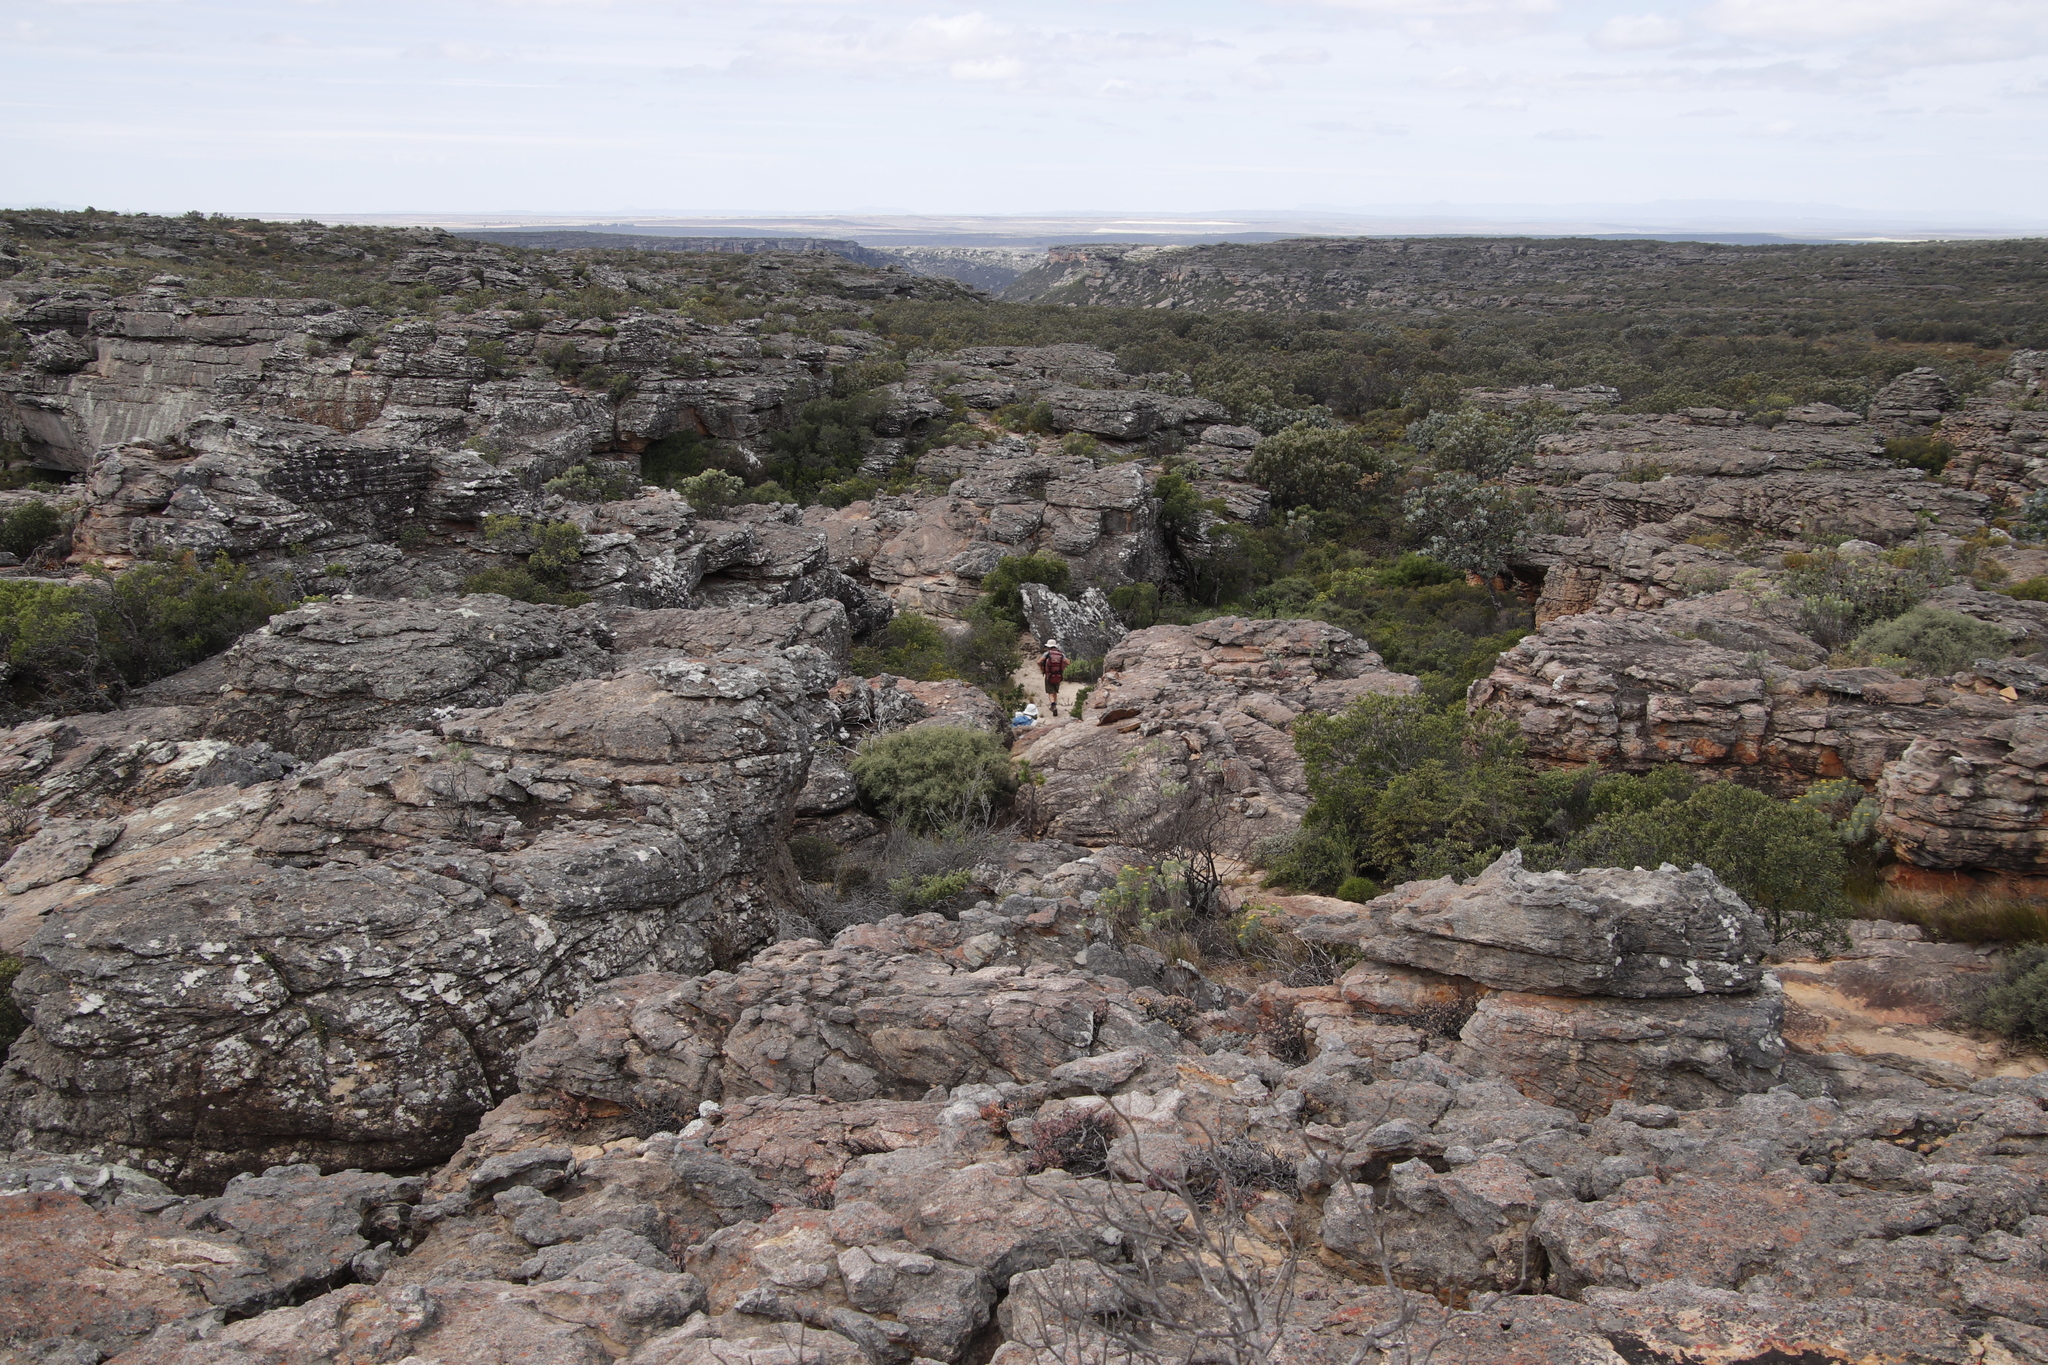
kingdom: Plantae
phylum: Tracheophyta
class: Magnoliopsida
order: Proteales
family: Proteaceae
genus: Protea
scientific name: Protea nitida
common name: Tree protea
